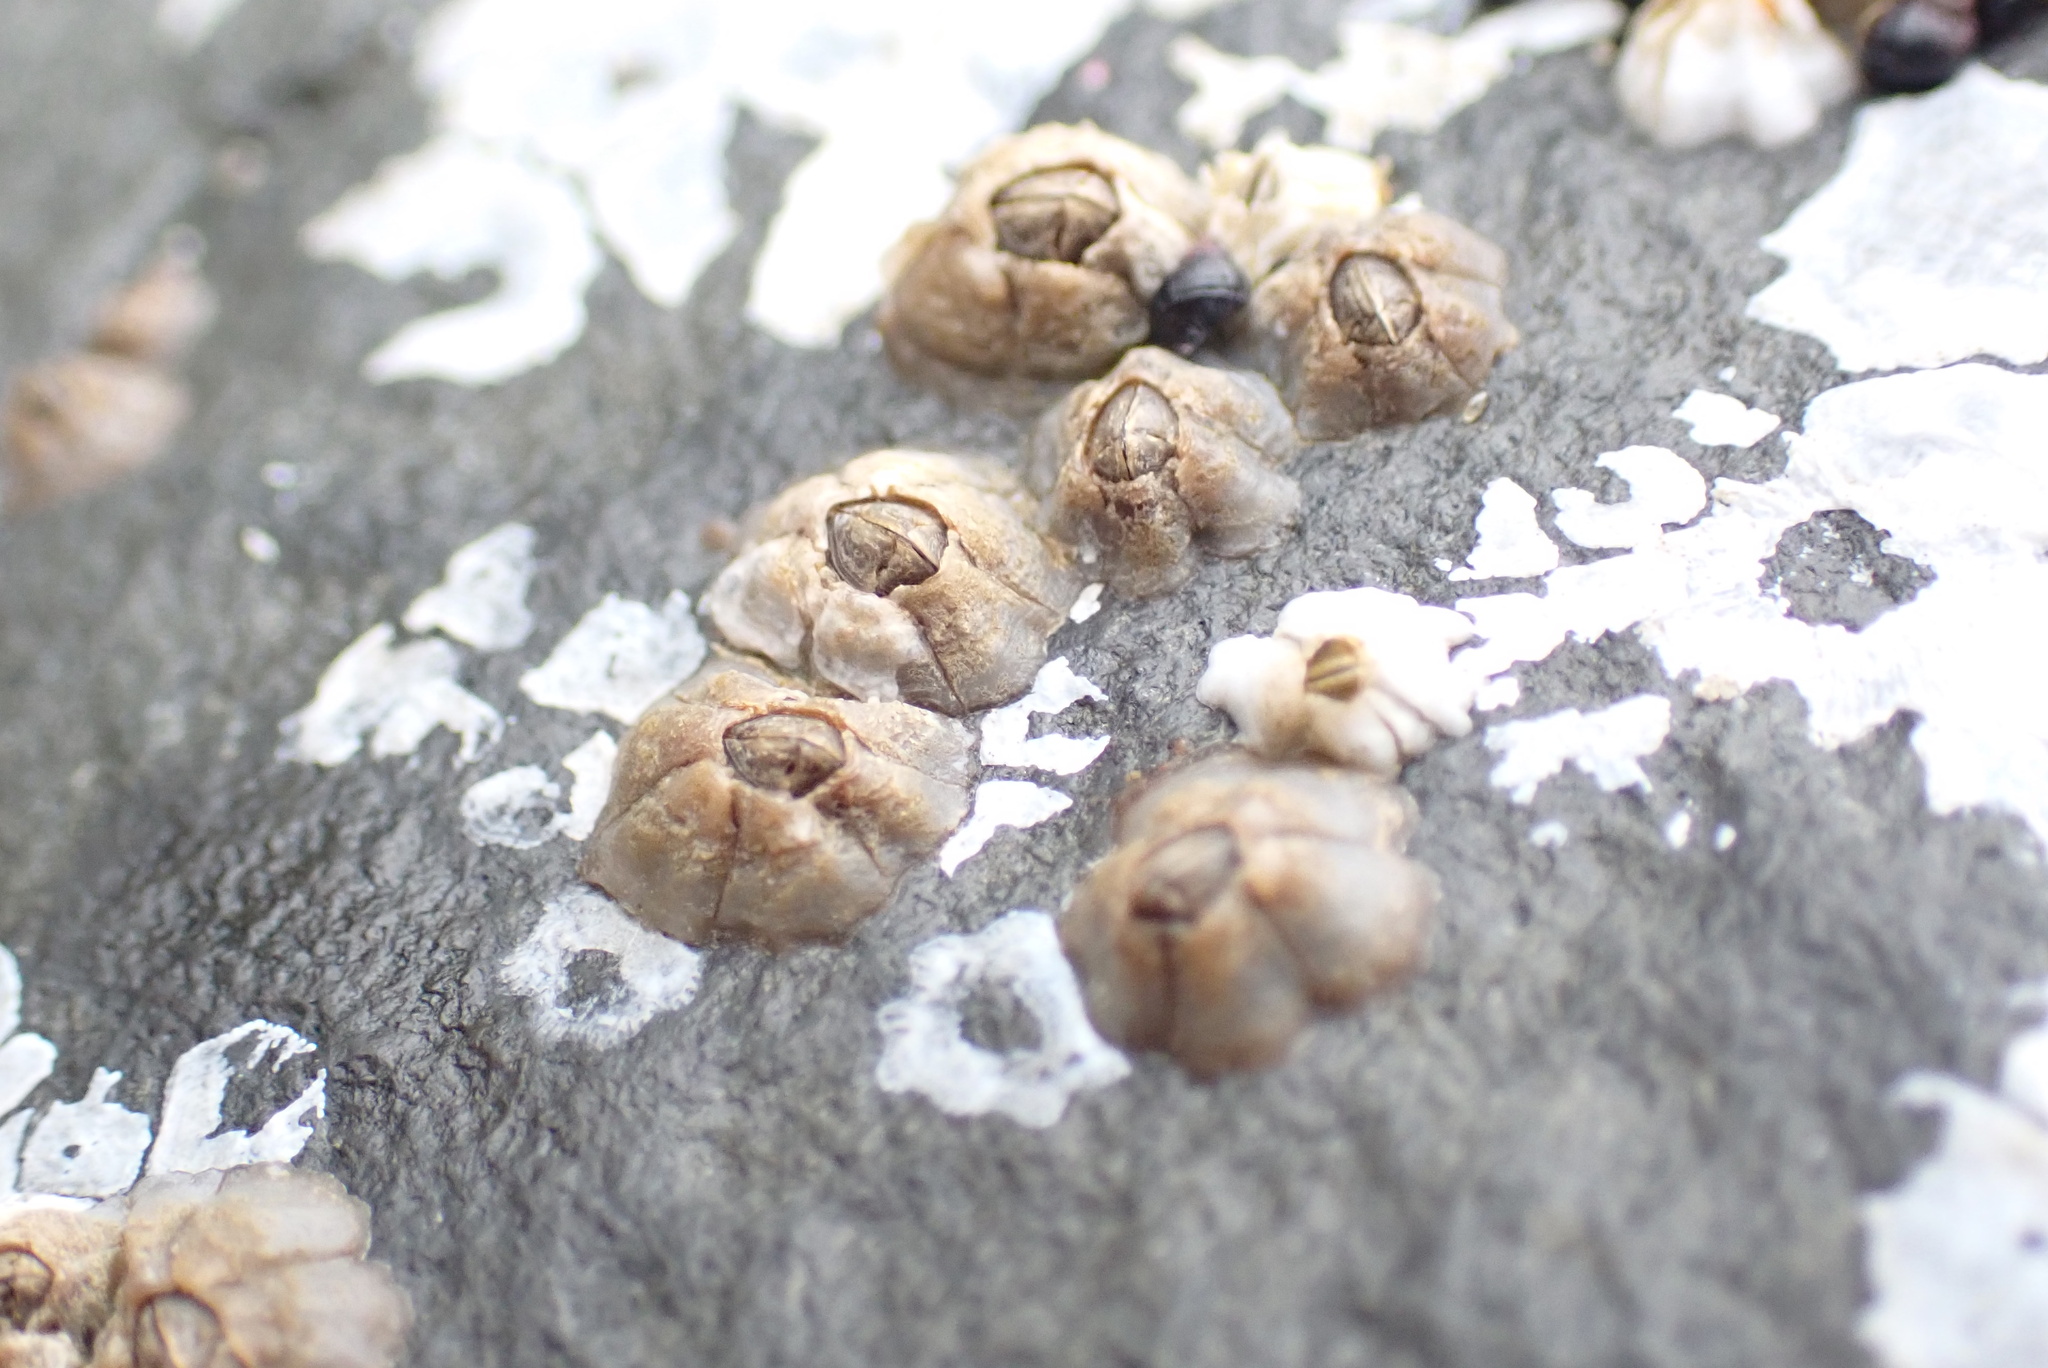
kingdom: Animalia
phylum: Arthropoda
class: Maxillopoda
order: Sessilia
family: Chthamalidae
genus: Chthamalus
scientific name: Chthamalus dalli
